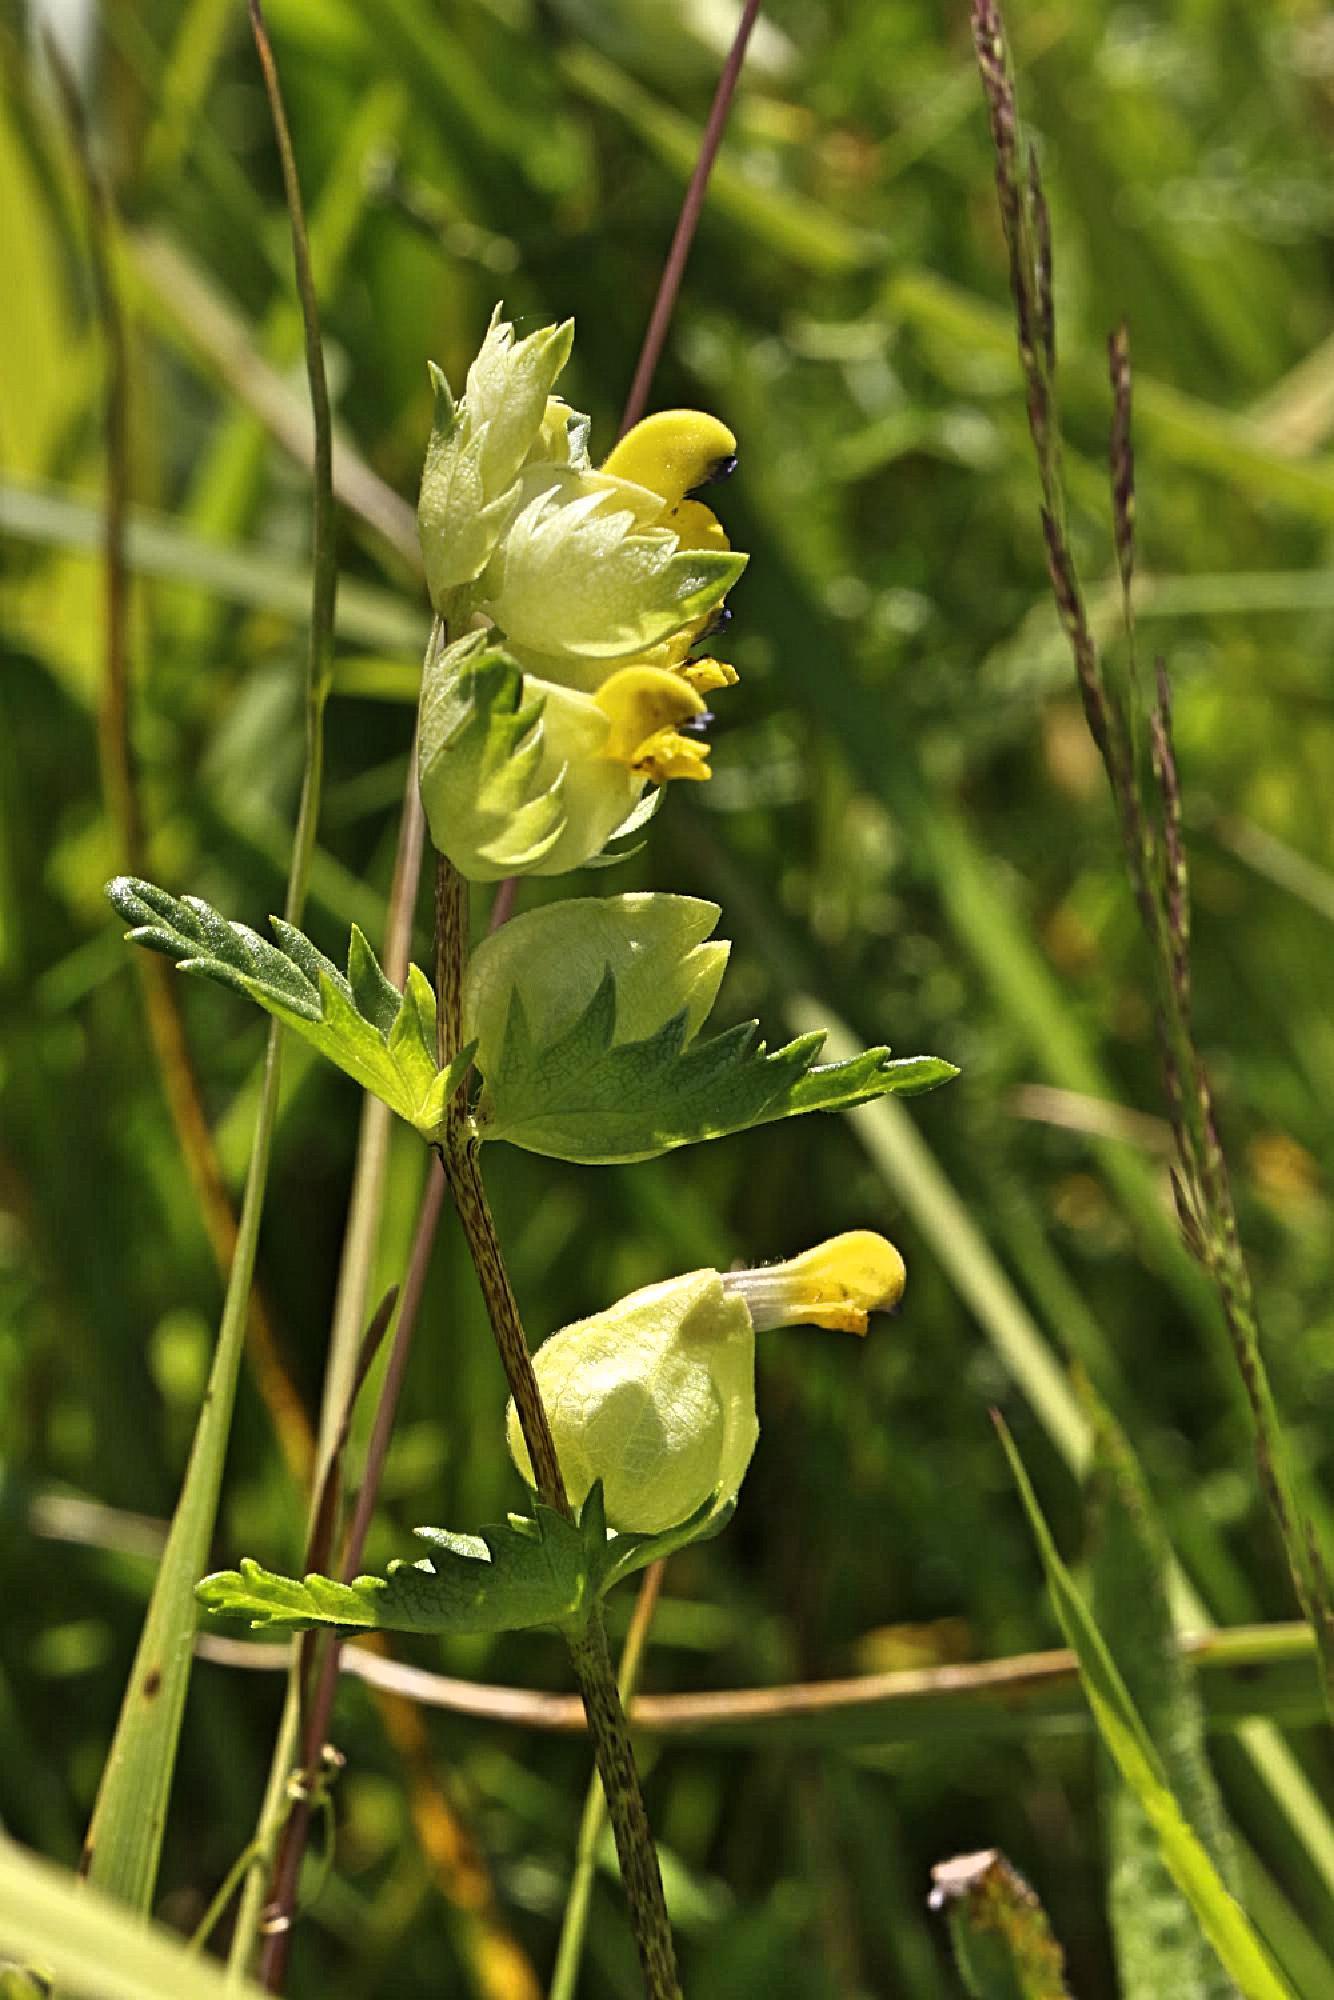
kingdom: Plantae
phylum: Tracheophyta
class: Magnoliopsida
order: Lamiales
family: Orobanchaceae
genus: Rhinanthus
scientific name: Rhinanthus minor
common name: Yellow-rattle
